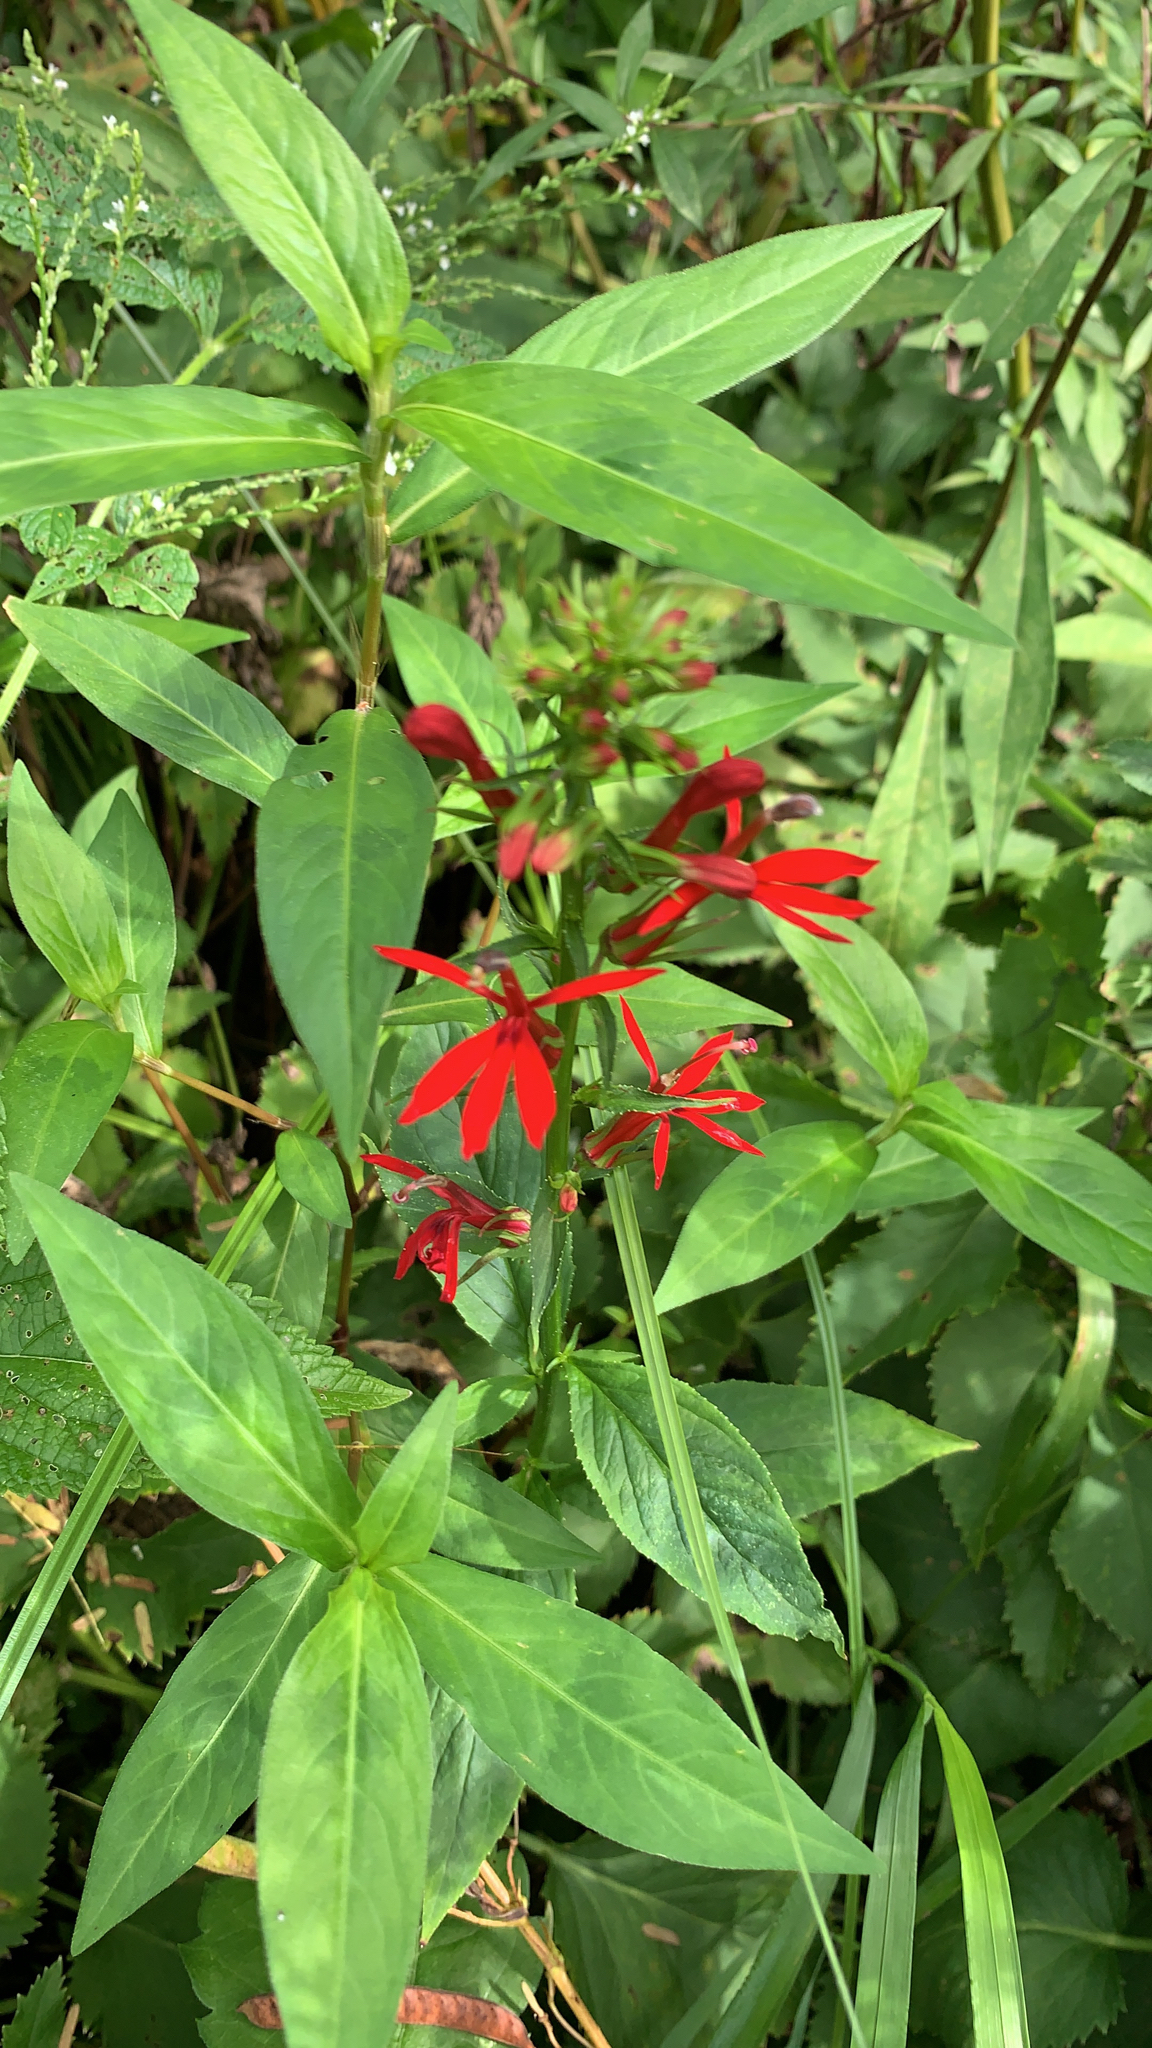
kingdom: Plantae
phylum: Tracheophyta
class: Magnoliopsida
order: Asterales
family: Campanulaceae
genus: Lobelia
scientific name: Lobelia cardinalis
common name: Cardinal flower
